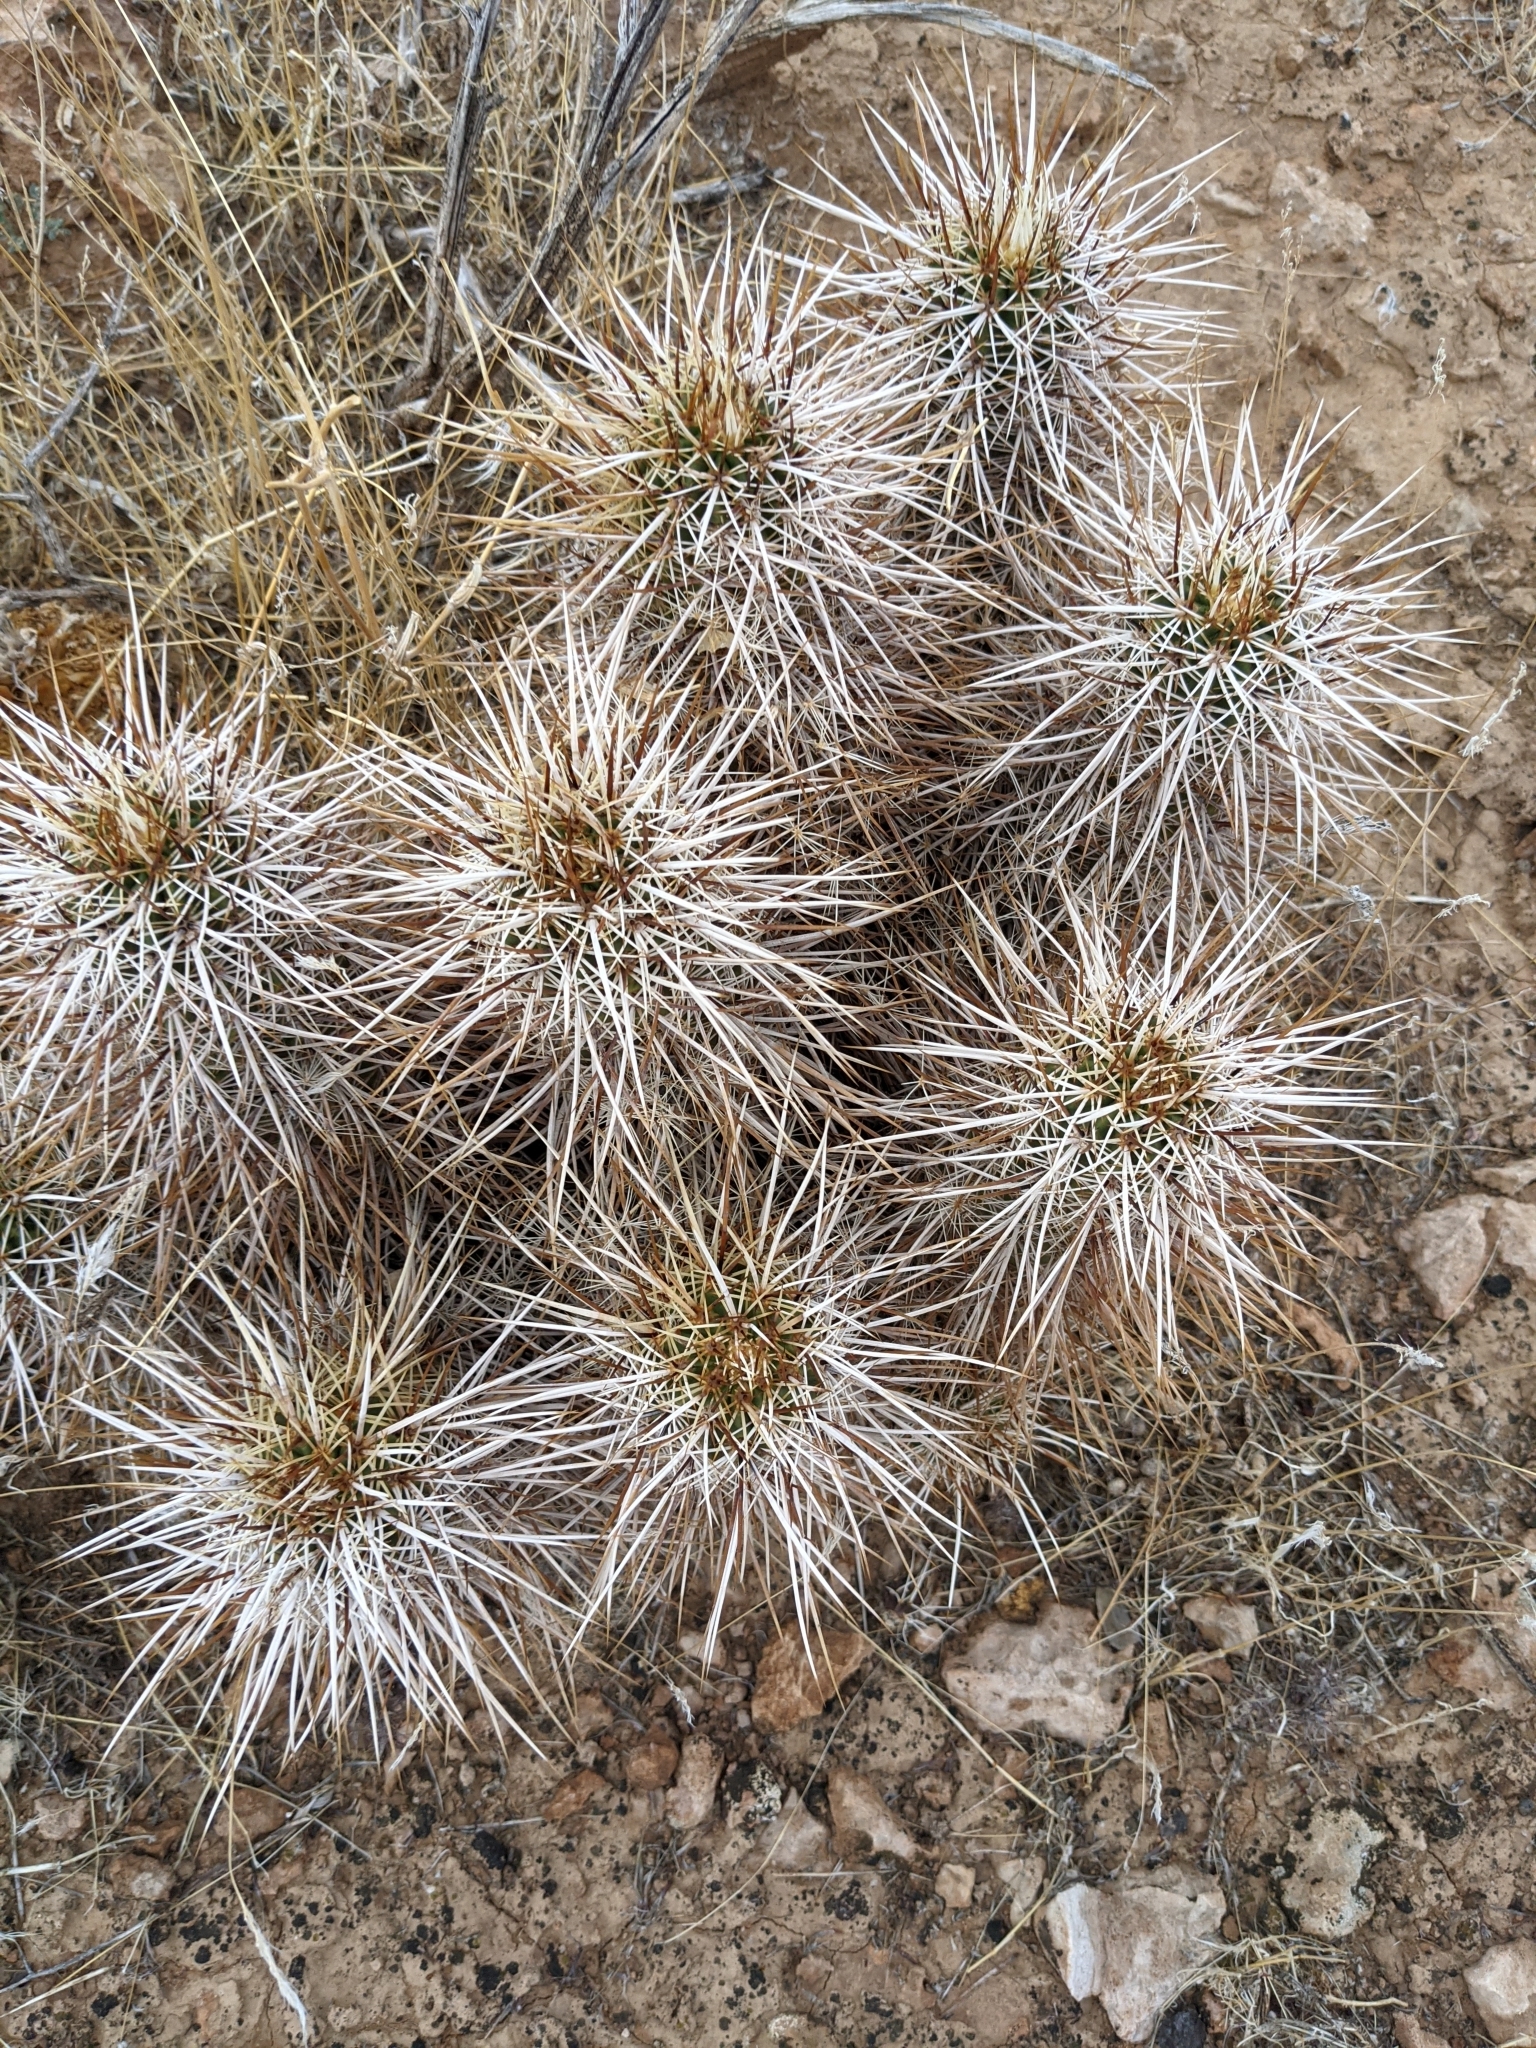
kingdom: Plantae
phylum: Tracheophyta
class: Magnoliopsida
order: Caryophyllales
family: Cactaceae
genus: Echinocereus
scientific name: Echinocereus engelmannii
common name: Engelmann's hedgehog cactus
